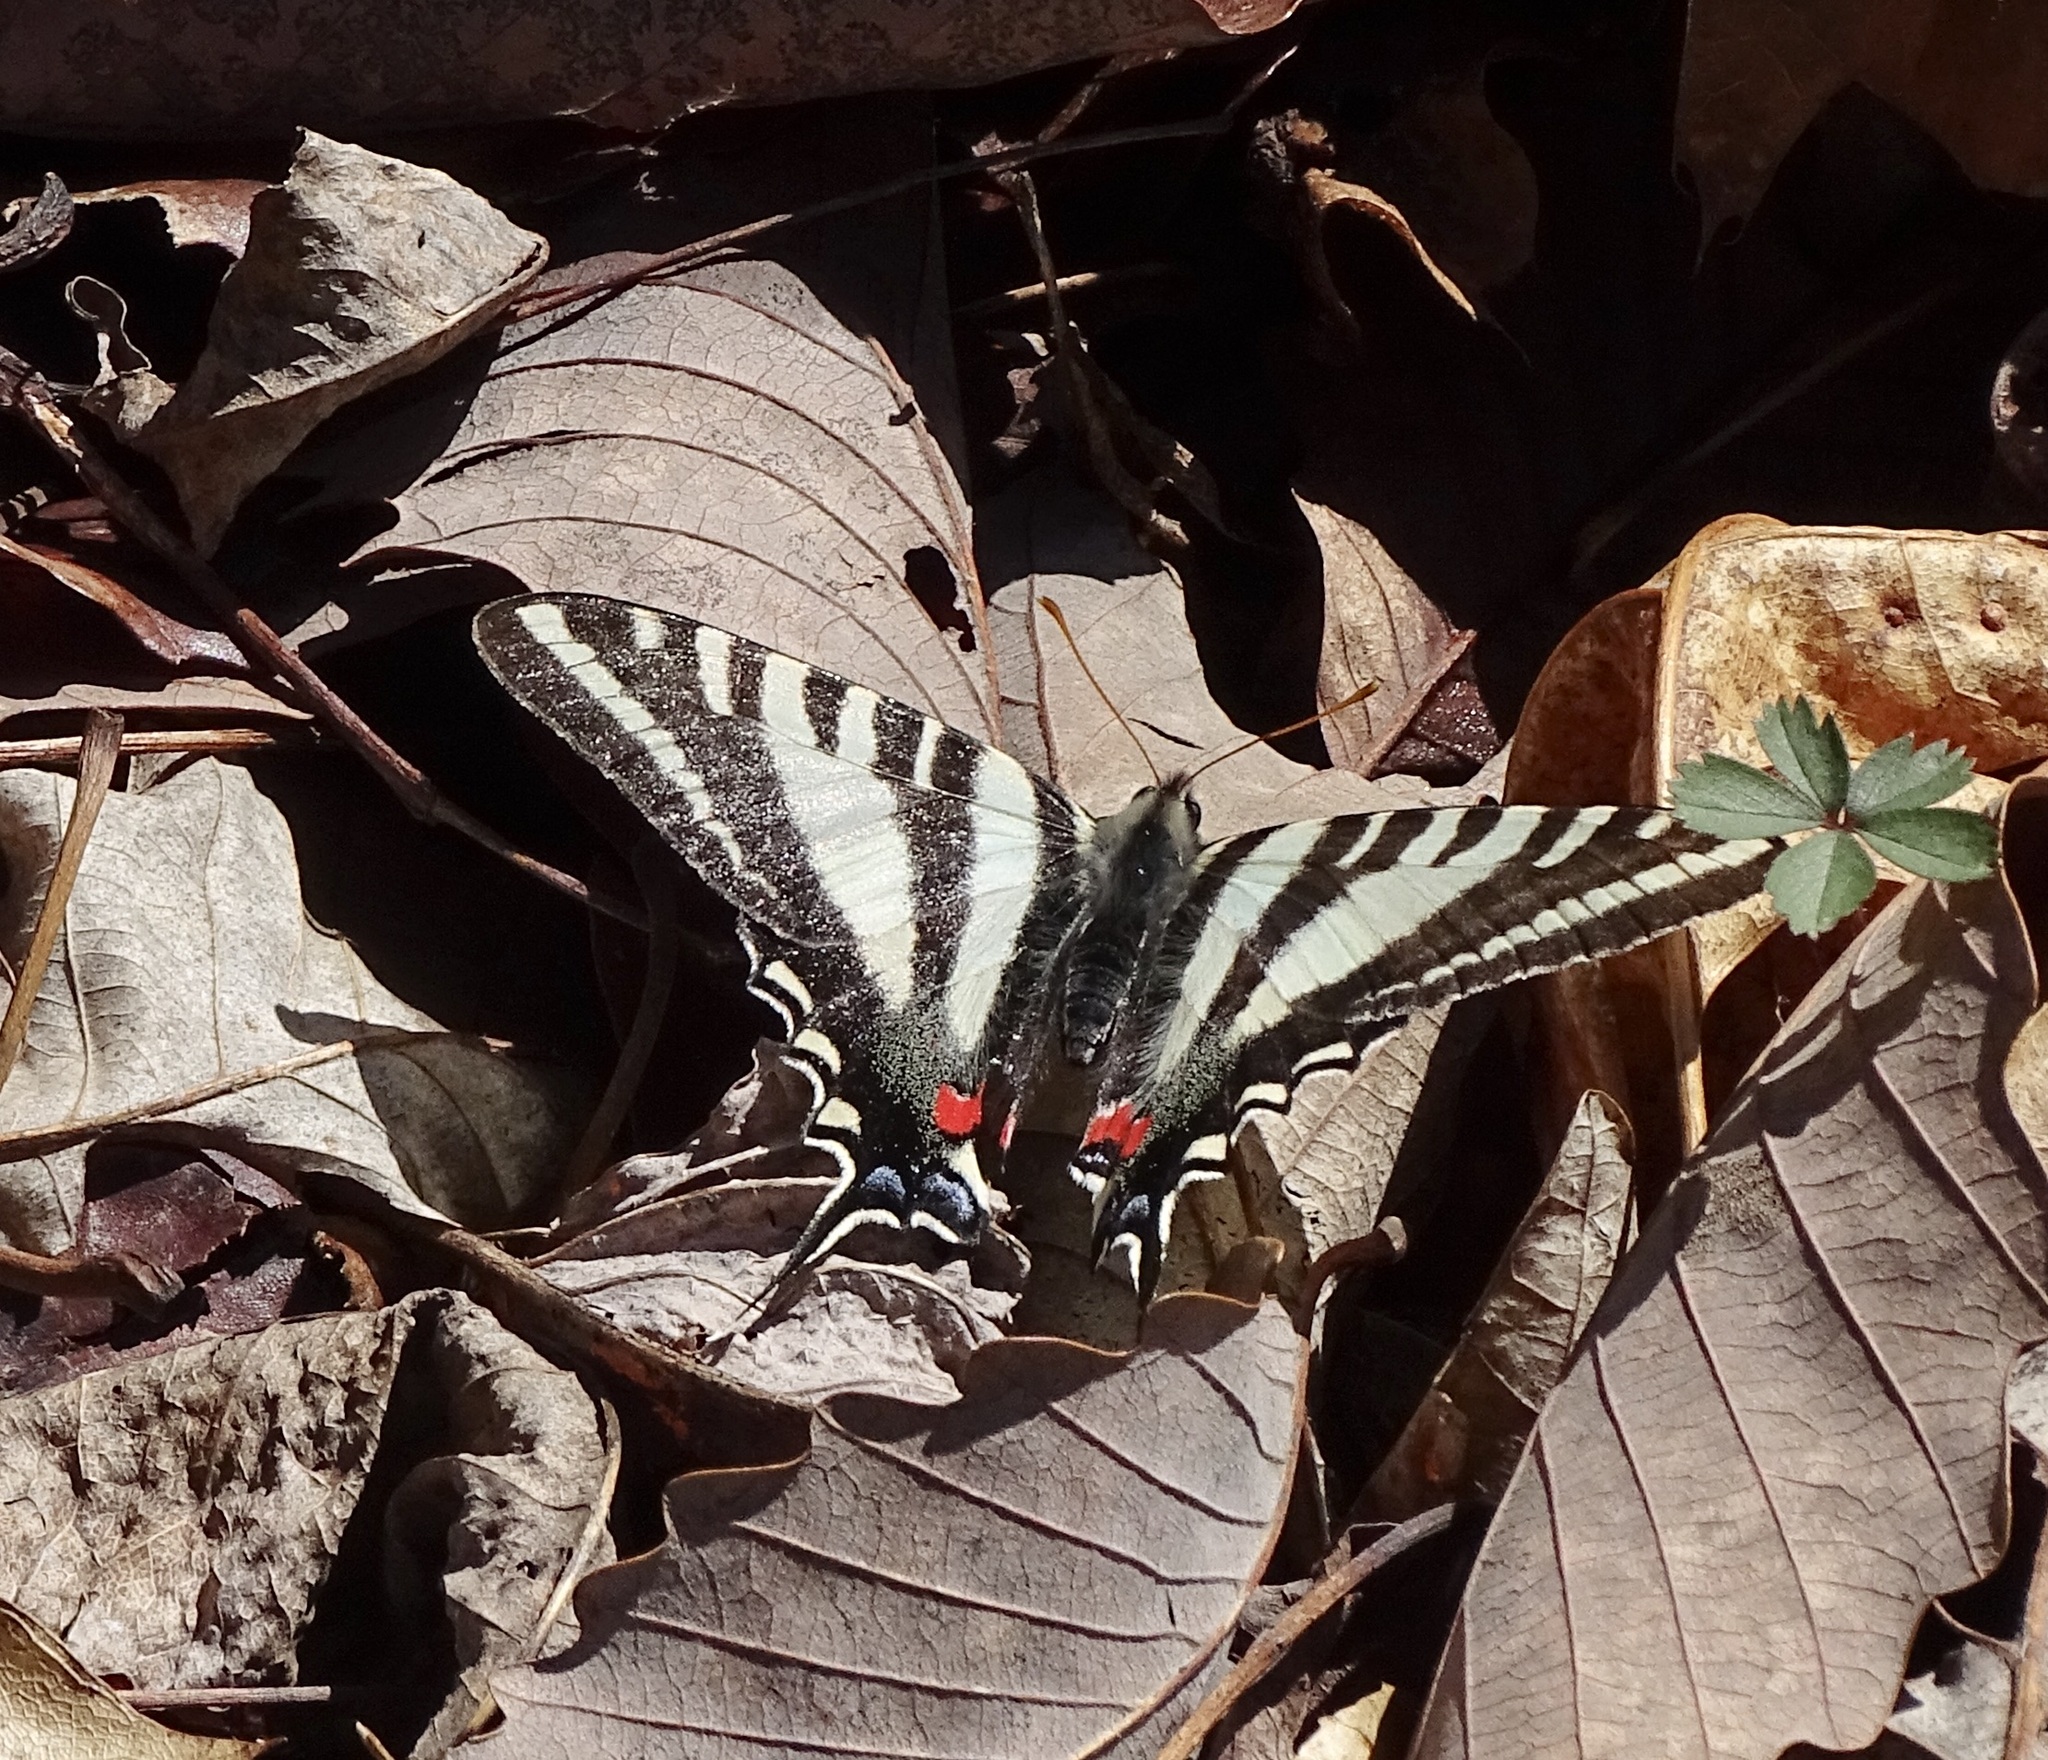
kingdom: Animalia
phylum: Arthropoda
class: Insecta
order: Lepidoptera
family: Papilionidae
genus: Protographium
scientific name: Protographium marcellus
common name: Zebra swallowtail
